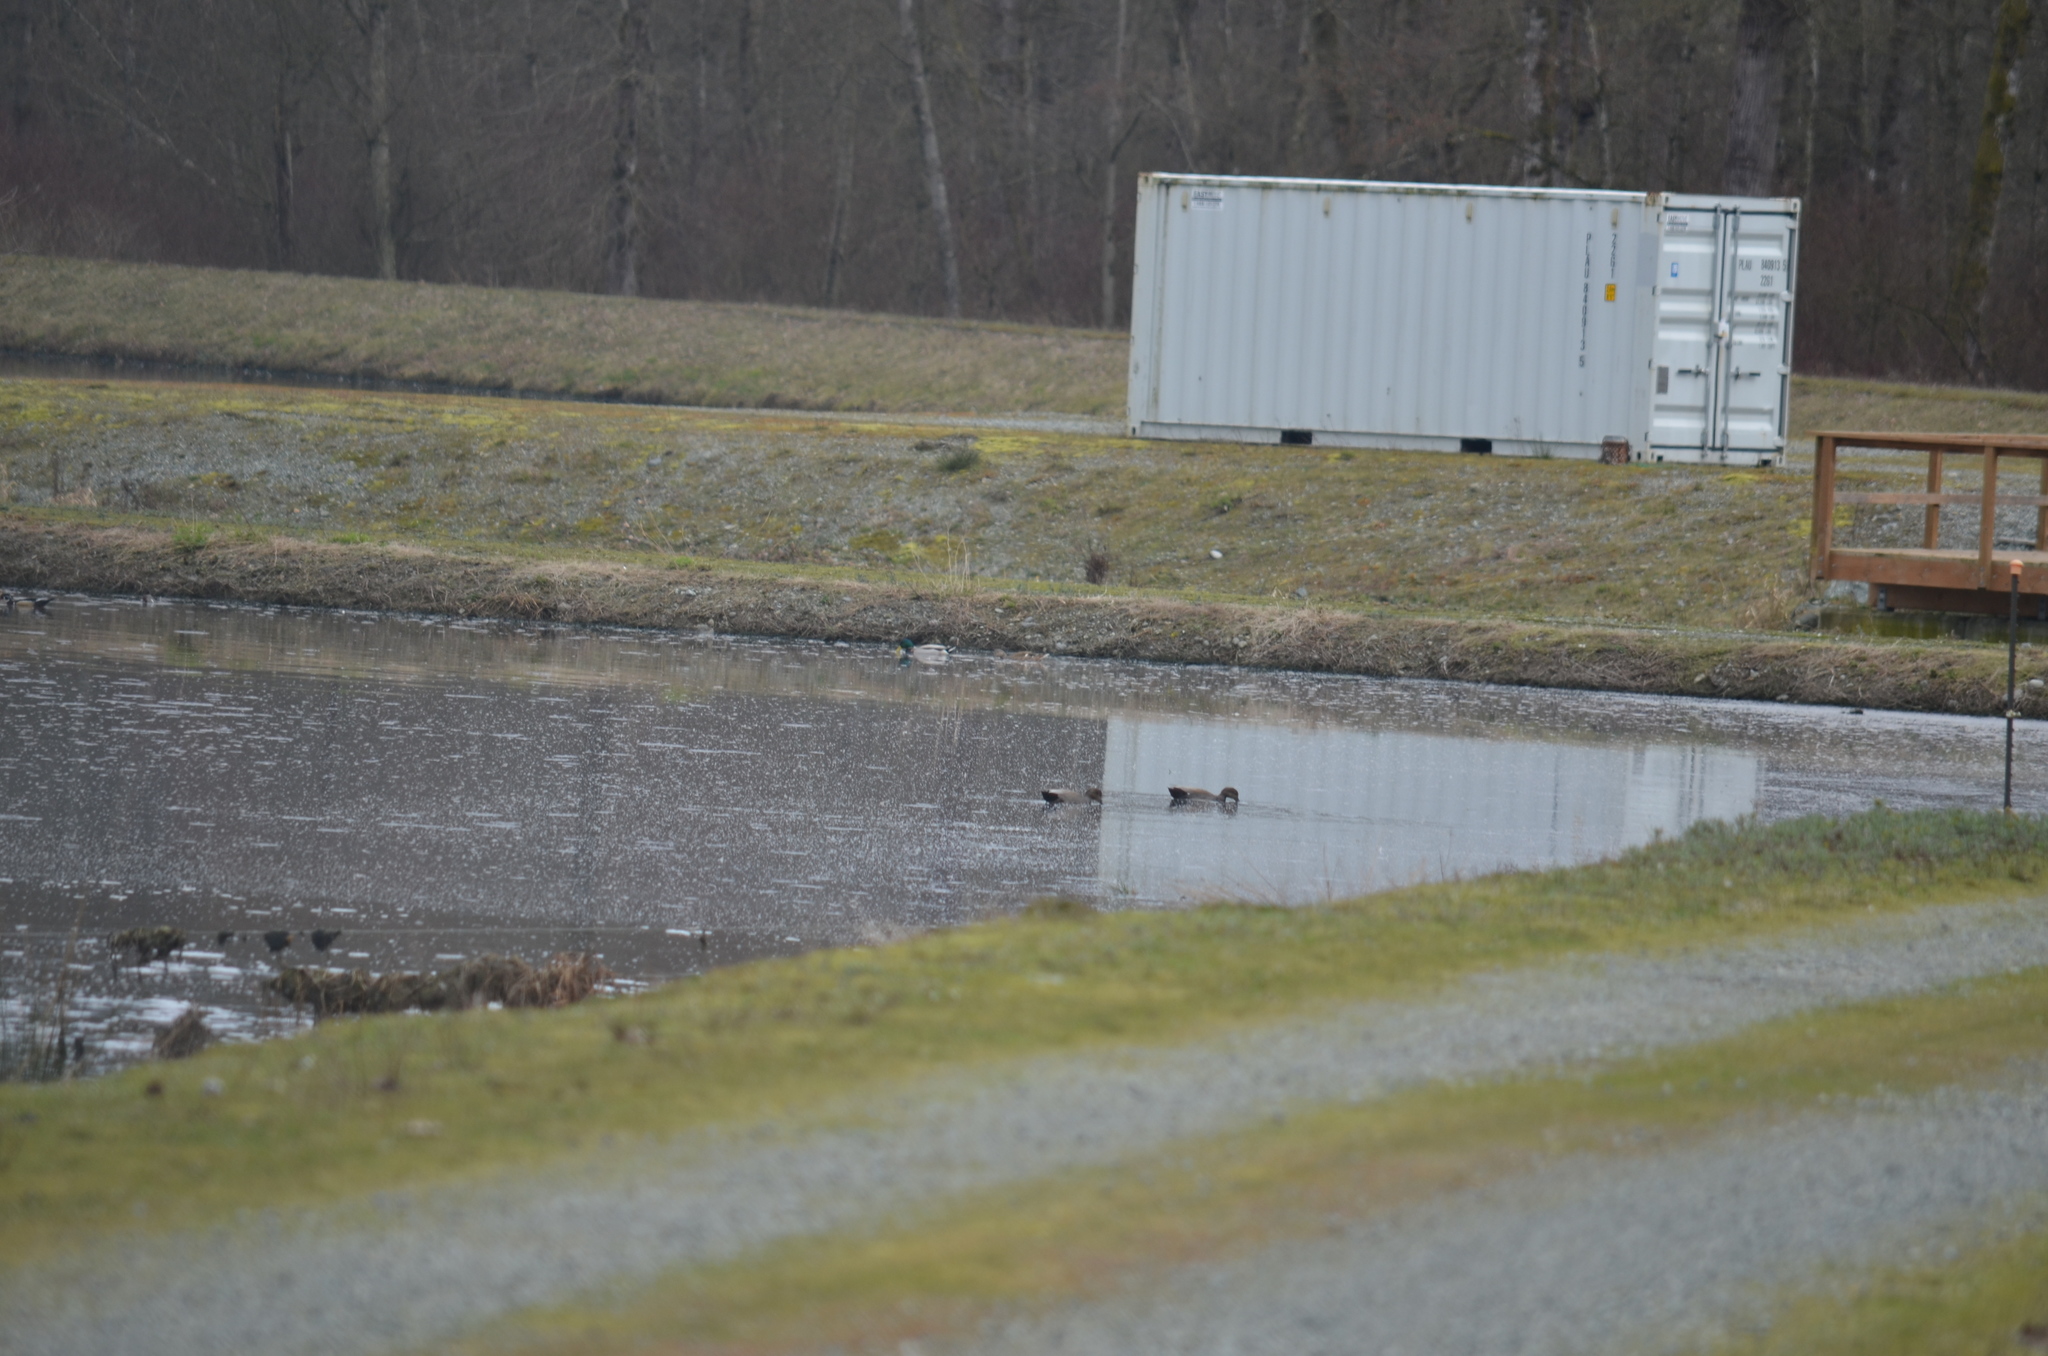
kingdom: Animalia
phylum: Chordata
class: Aves
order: Anseriformes
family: Anatidae
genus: Mareca
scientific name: Mareca strepera
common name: Gadwall
